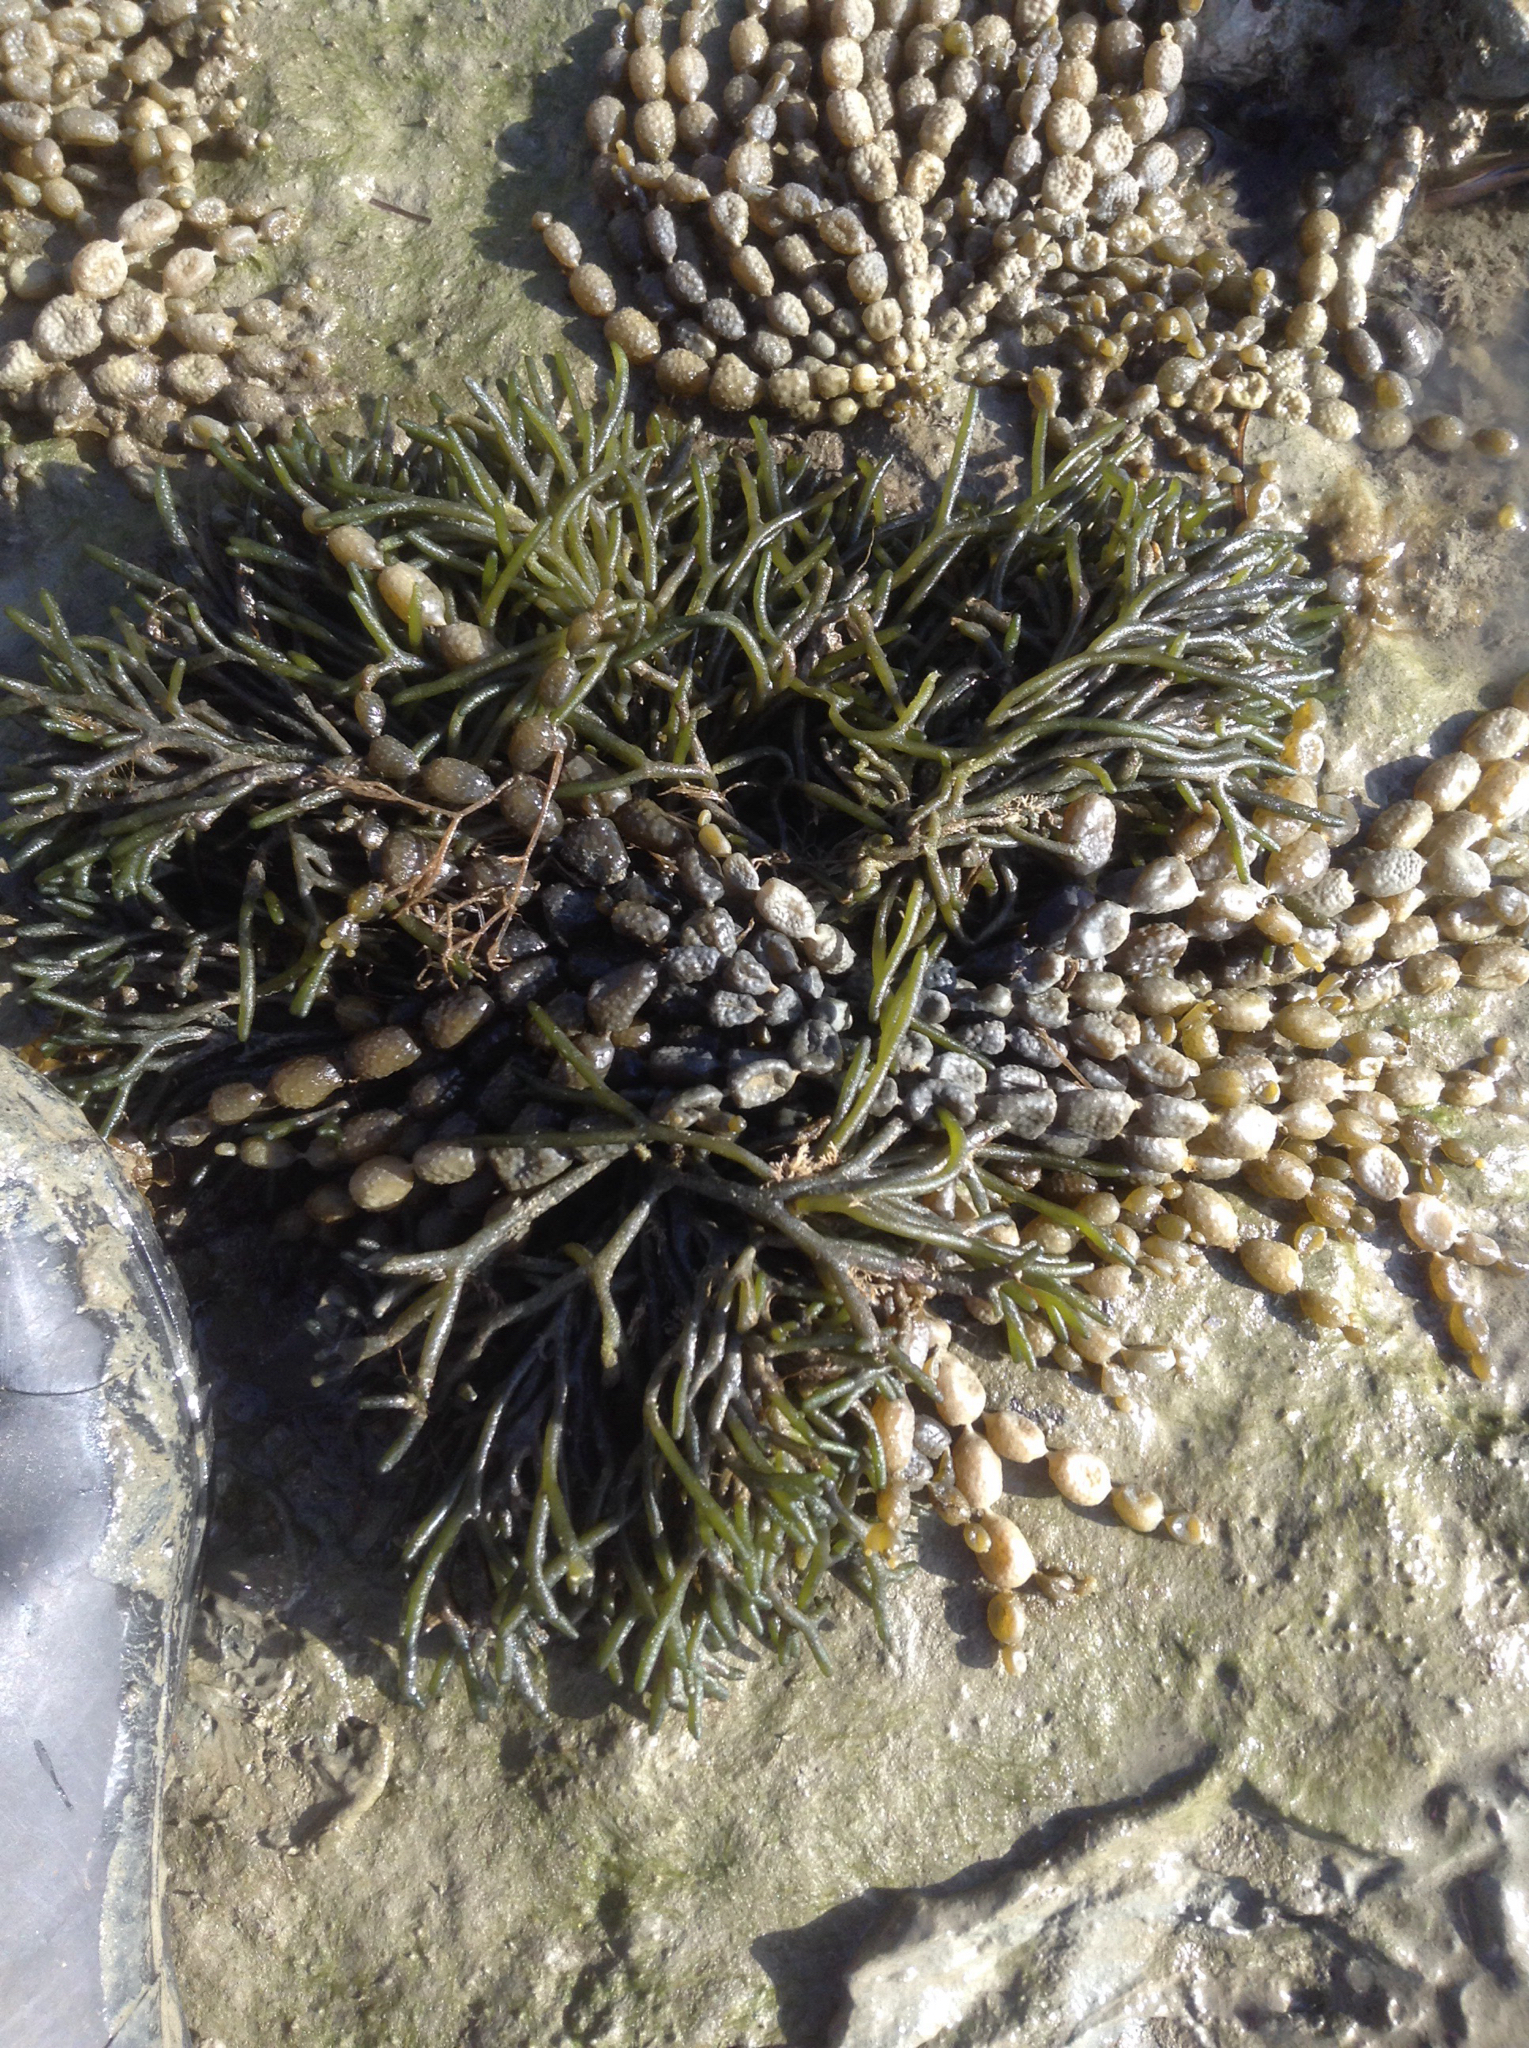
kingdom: Chromista
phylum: Ochrophyta
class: Phaeophyceae
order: Fucales
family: Hormosiraceae
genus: Hormosira
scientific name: Hormosira banksii
